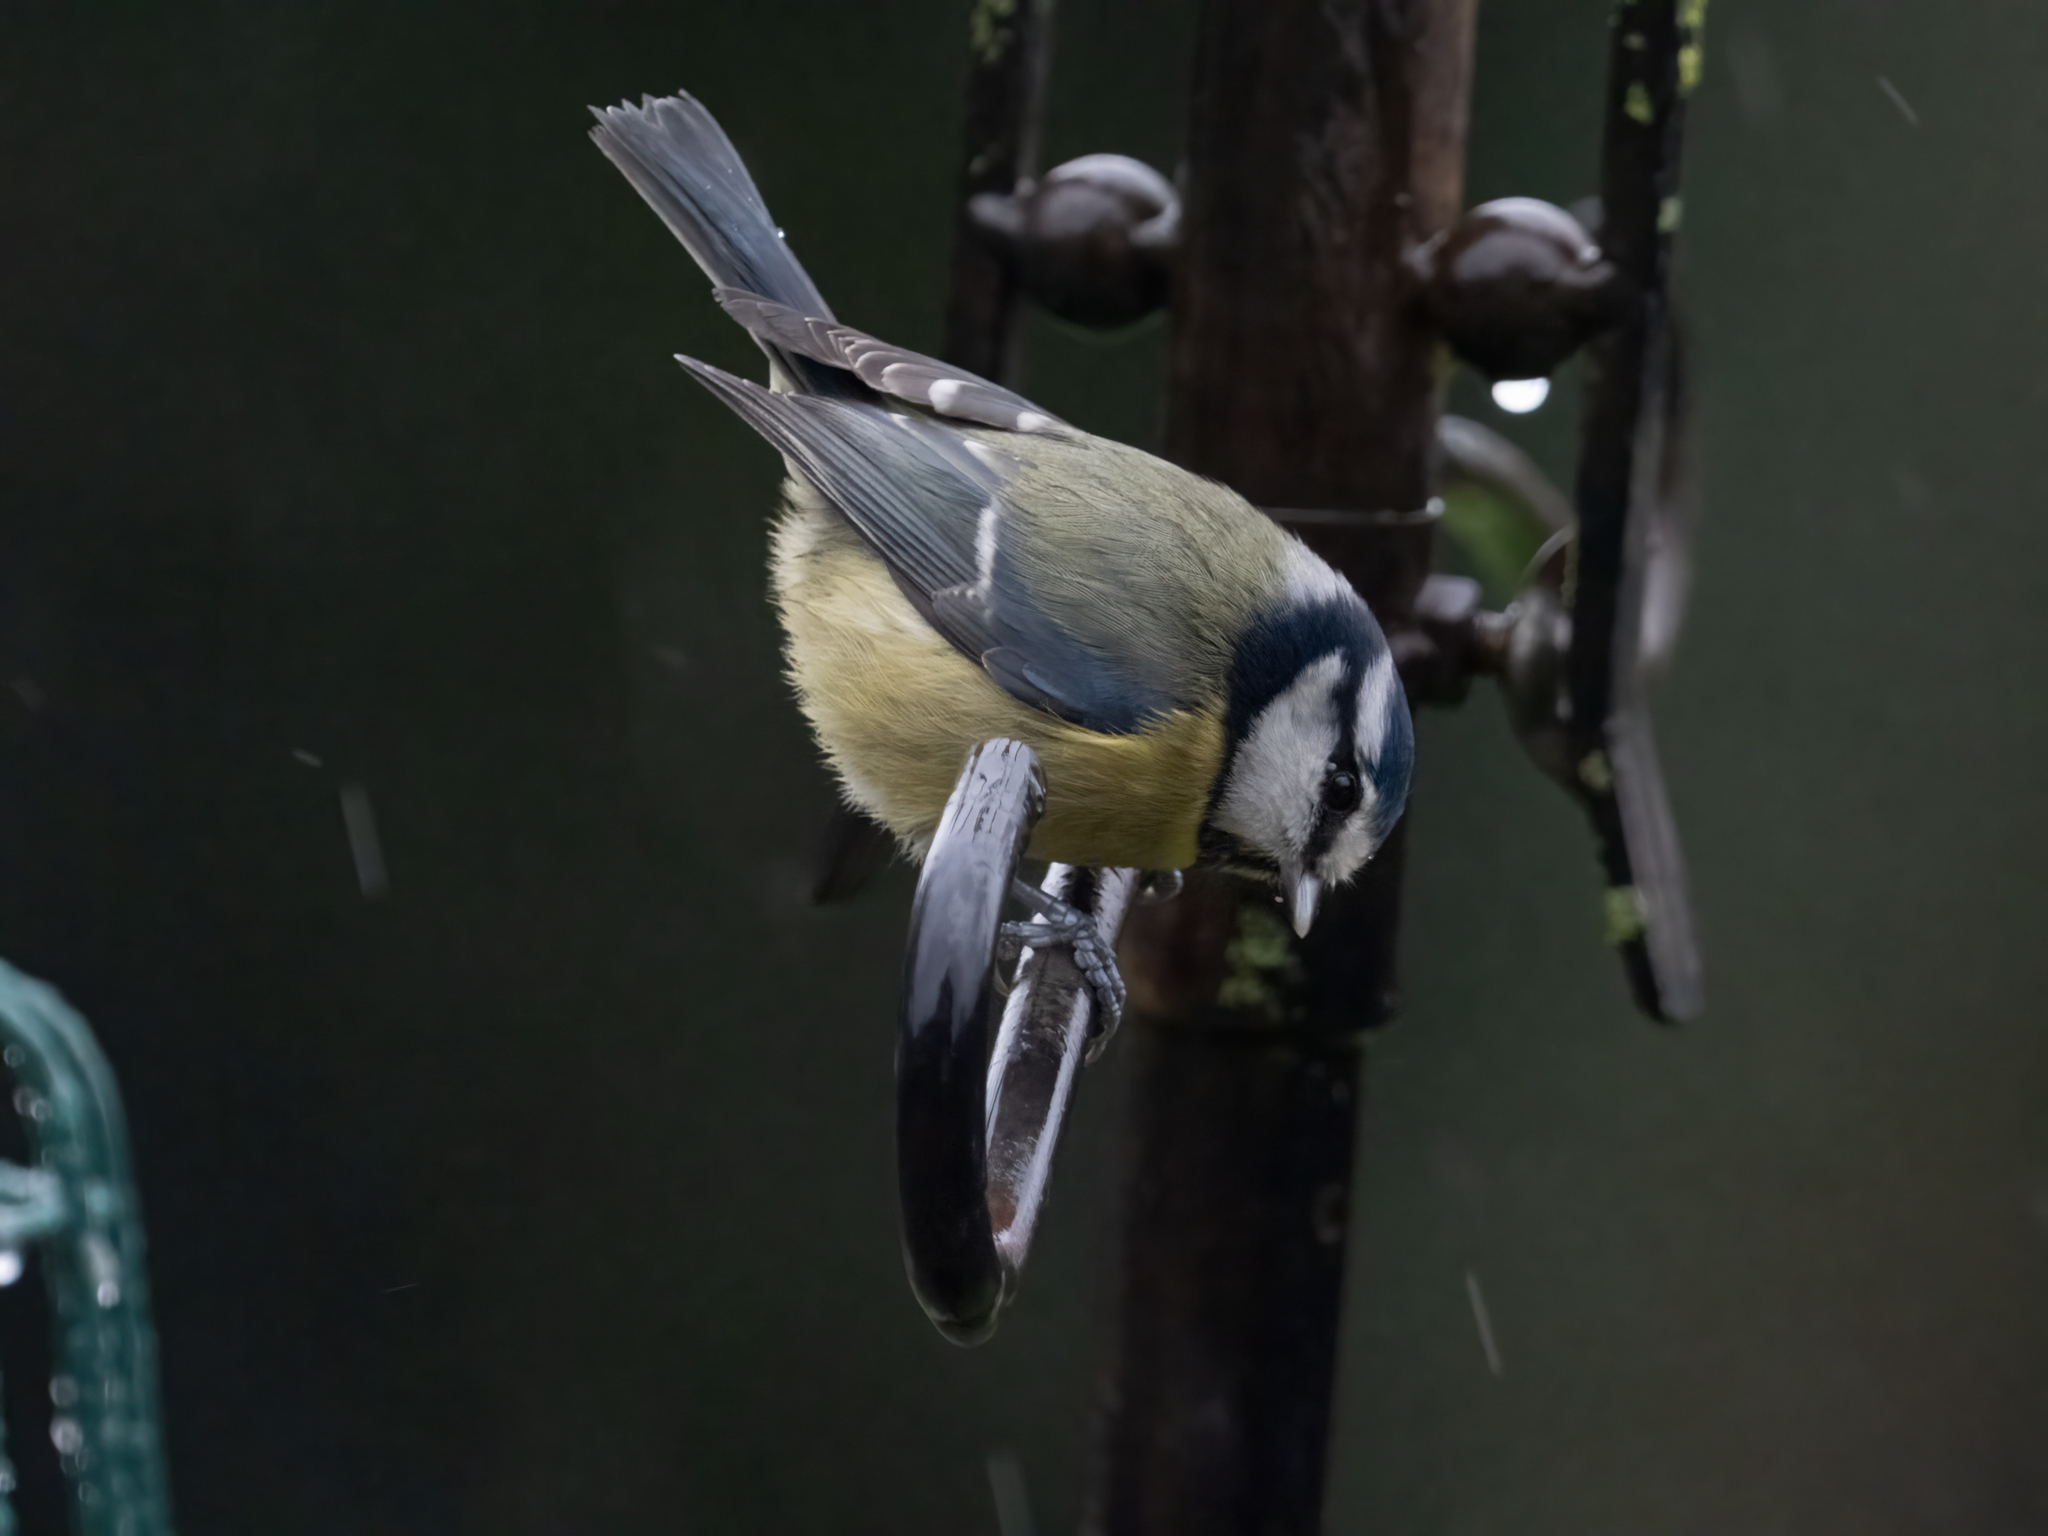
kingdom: Animalia
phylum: Chordata
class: Aves
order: Passeriformes
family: Paridae
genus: Cyanistes
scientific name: Cyanistes caeruleus
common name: Eurasian blue tit
